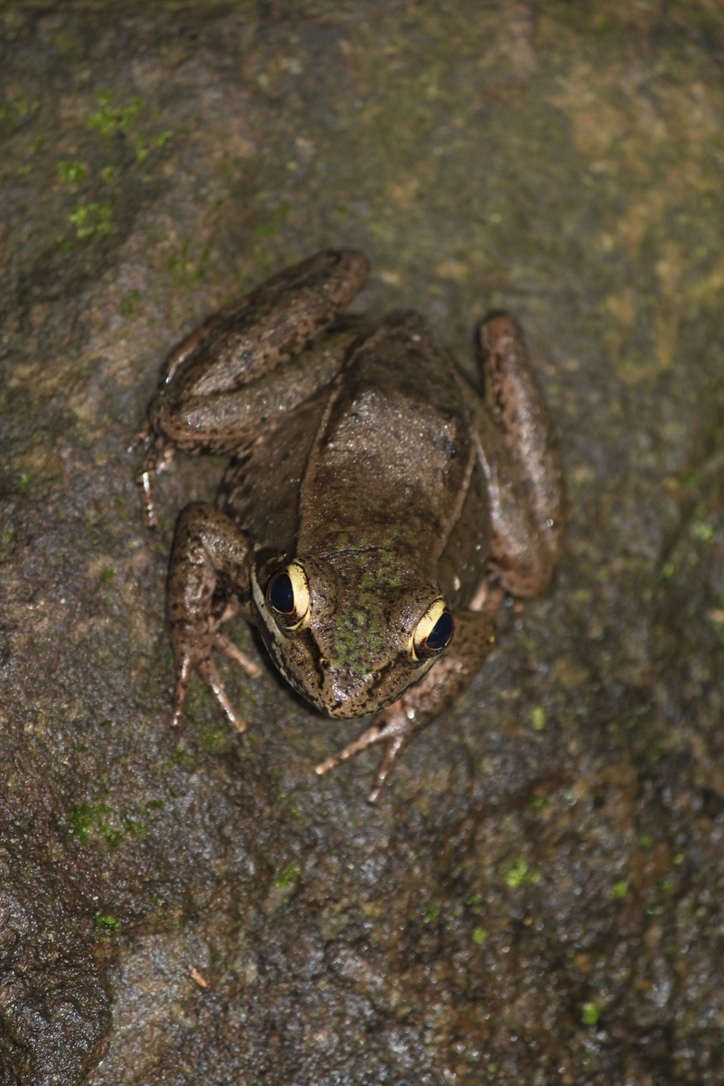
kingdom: Animalia
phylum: Chordata
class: Amphibia
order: Anura
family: Ranidae
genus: Lithobates
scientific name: Lithobates maculatus
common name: Highland frog
